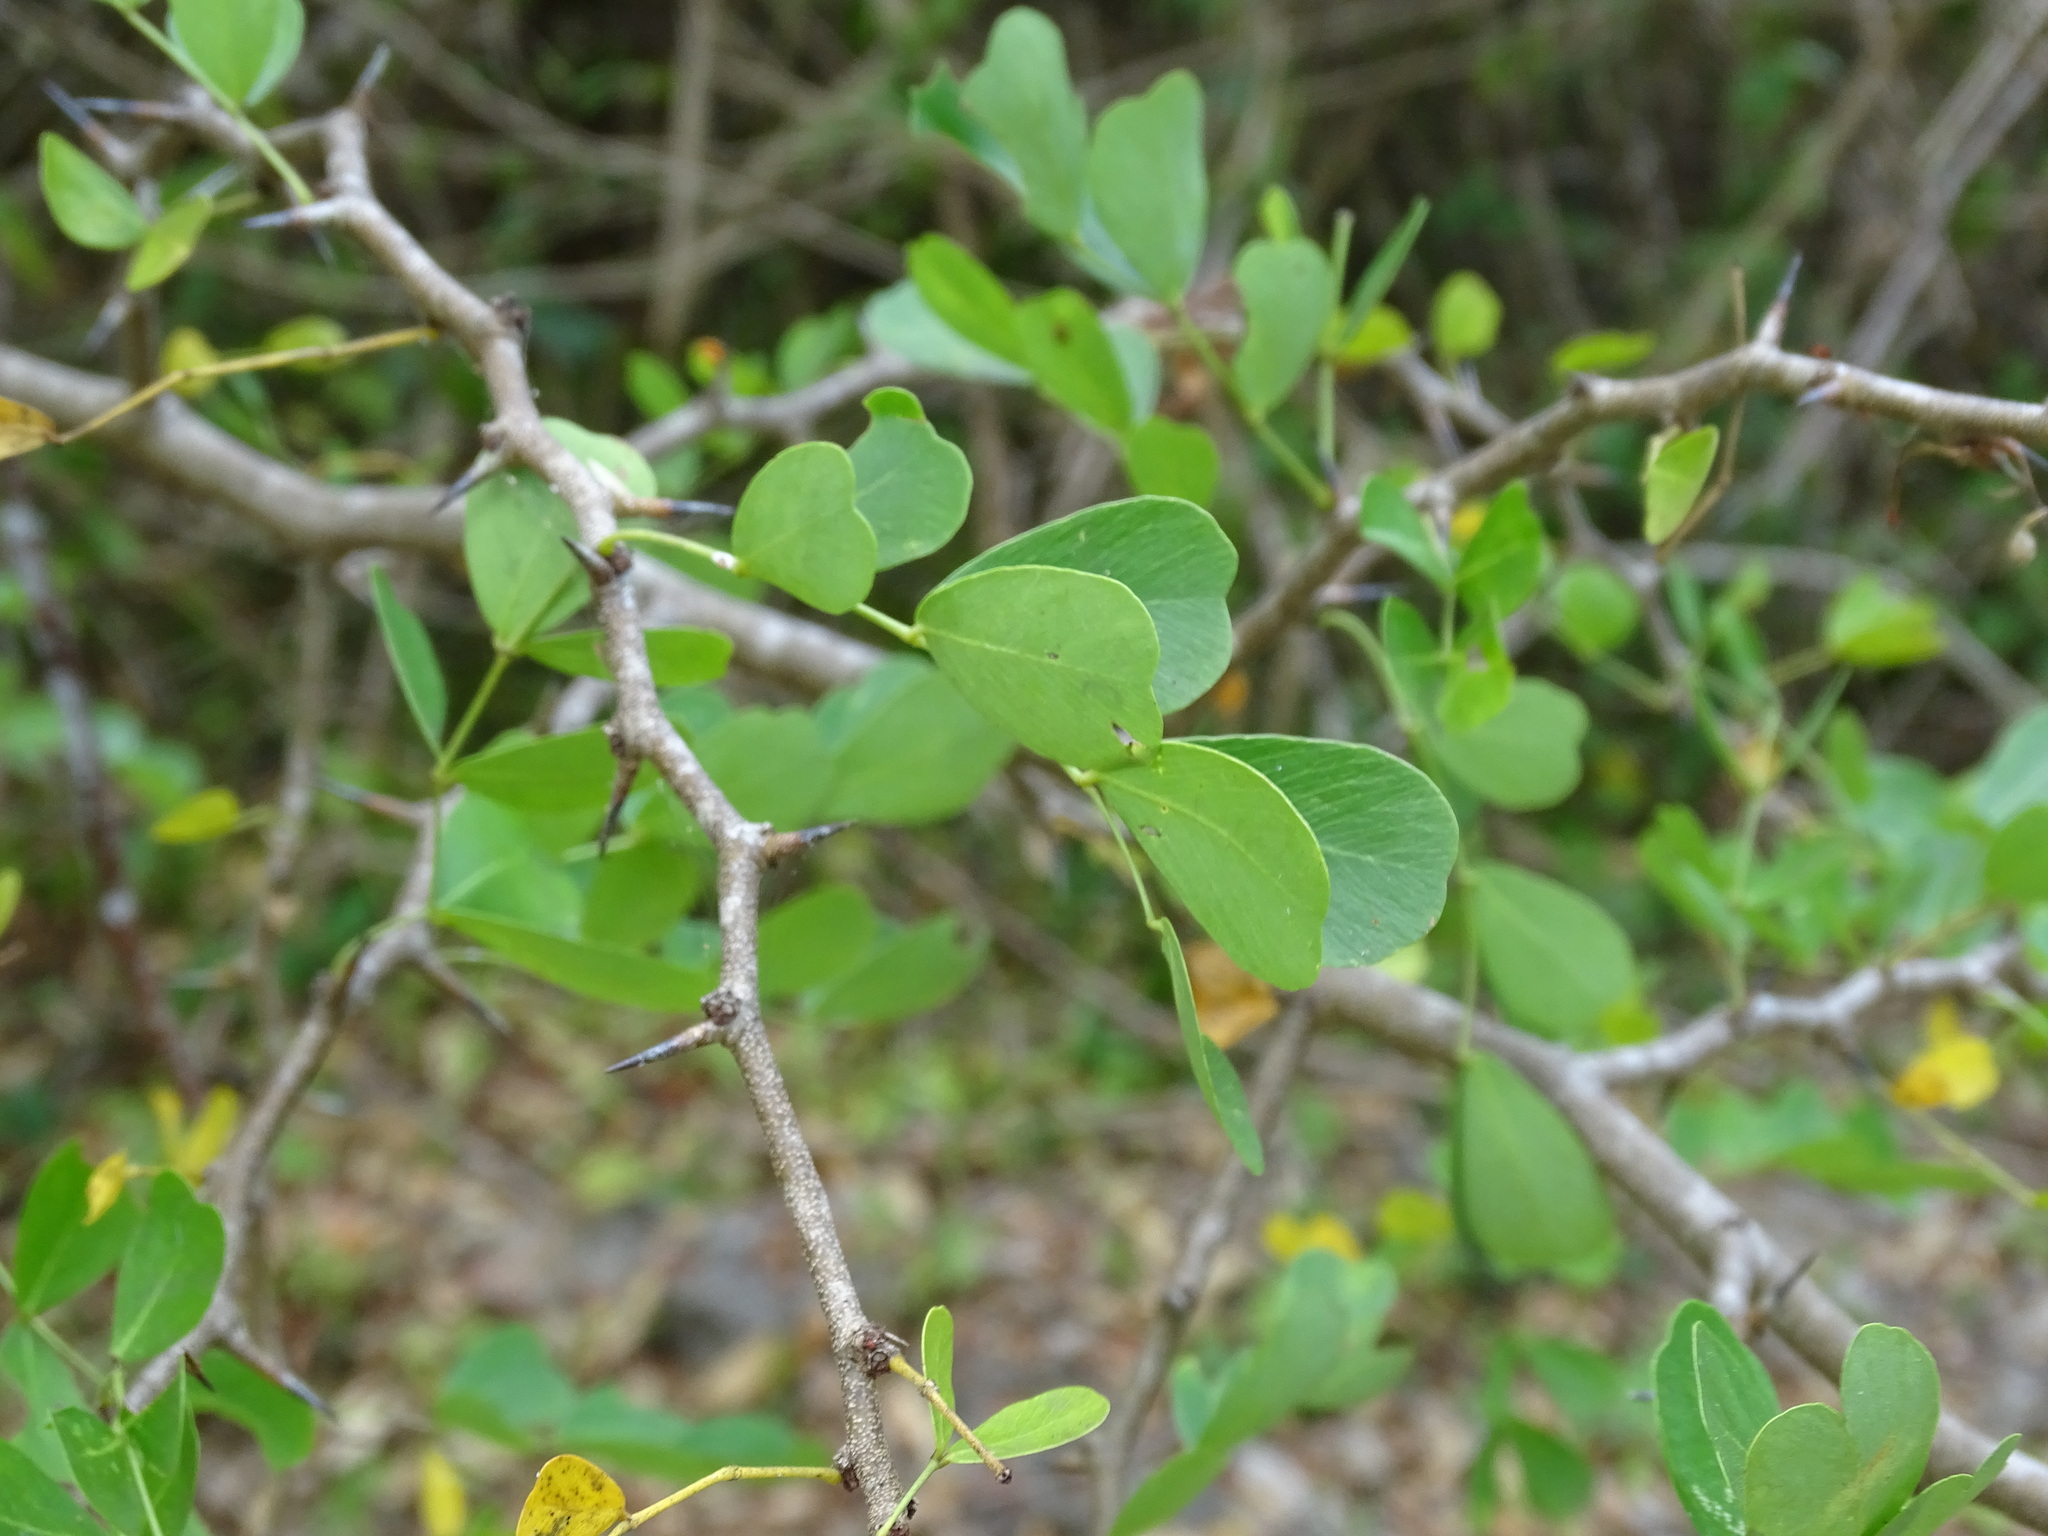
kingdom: Plantae
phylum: Tracheophyta
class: Magnoliopsida
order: Fabales
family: Fabaceae
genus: Haematoxylum
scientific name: Haematoxylum campechianum
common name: Logwood
